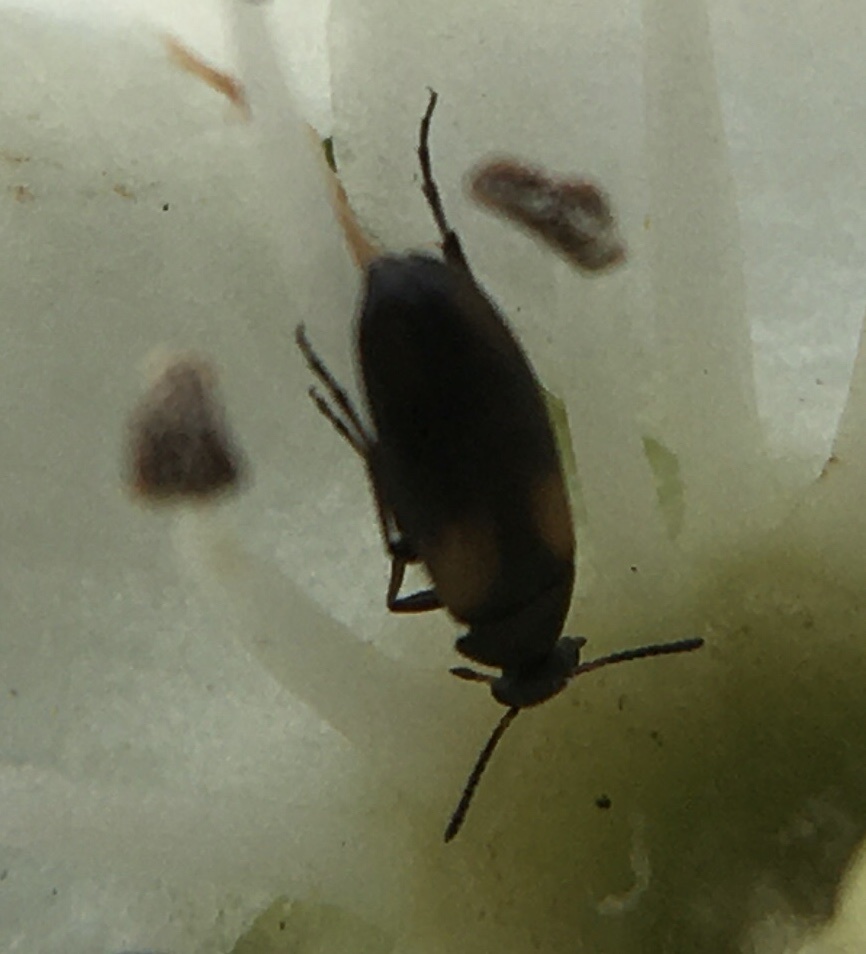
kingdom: Animalia
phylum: Arthropoda
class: Insecta
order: Coleoptera
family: Scraptiidae
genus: Anaspis
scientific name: Anaspis fasciata
